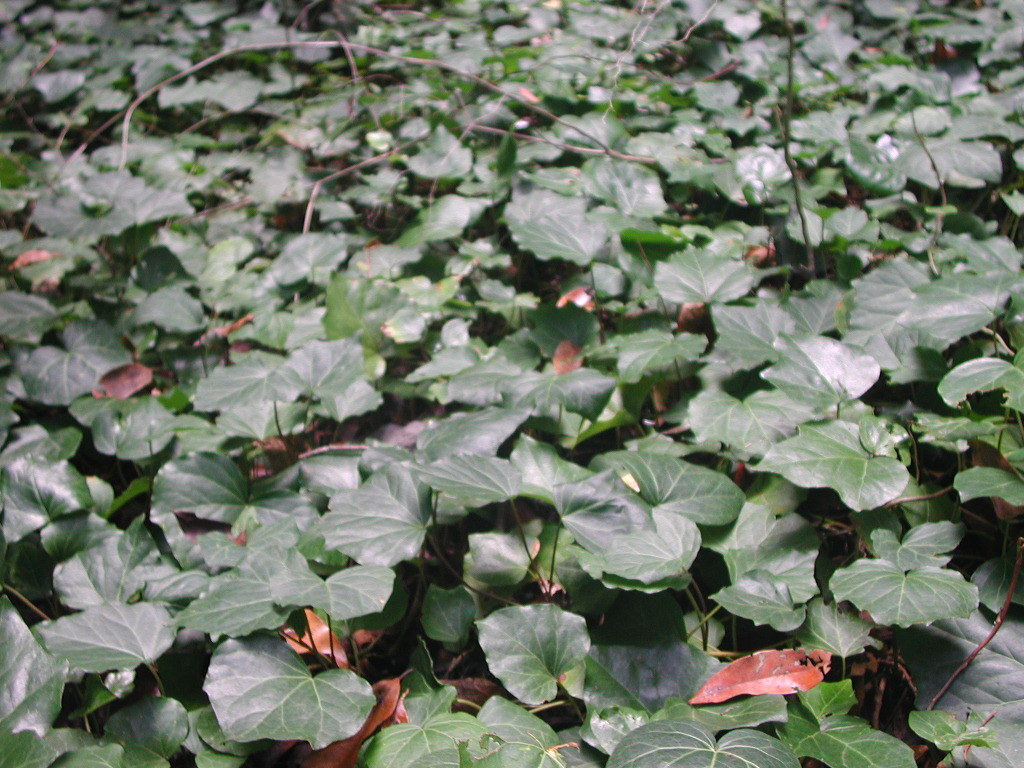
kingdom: Plantae
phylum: Tracheophyta
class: Magnoliopsida
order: Apiales
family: Araliaceae
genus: Hedera
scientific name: Hedera canariensis
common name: Madeira ivy
